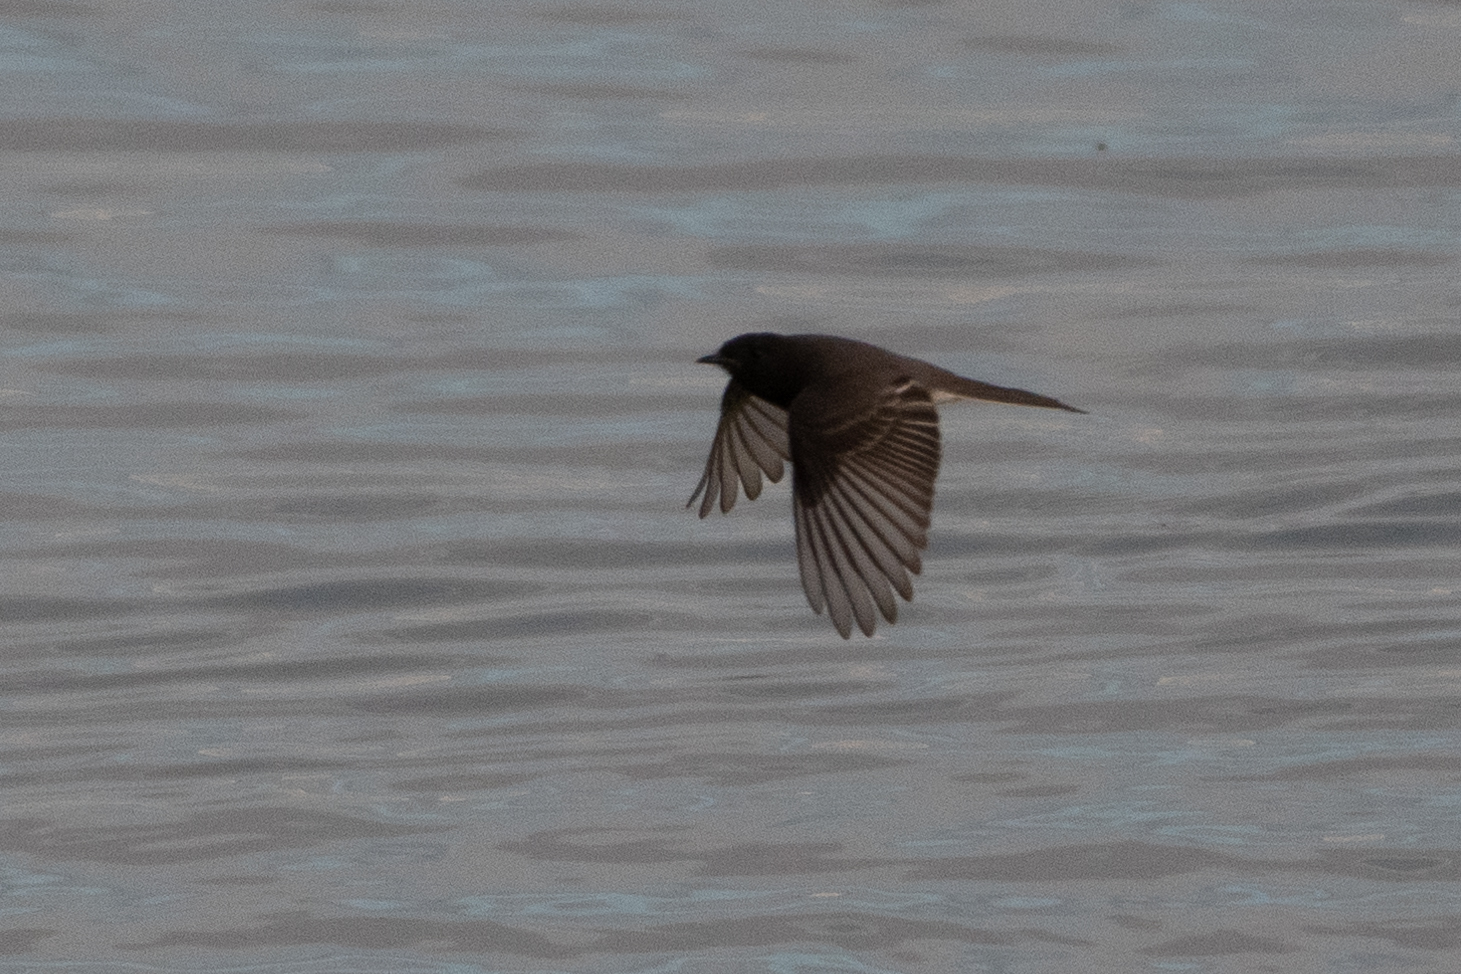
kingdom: Animalia
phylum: Chordata
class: Aves
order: Passeriformes
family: Tyrannidae
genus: Sayornis
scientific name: Sayornis nigricans
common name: Black phoebe
